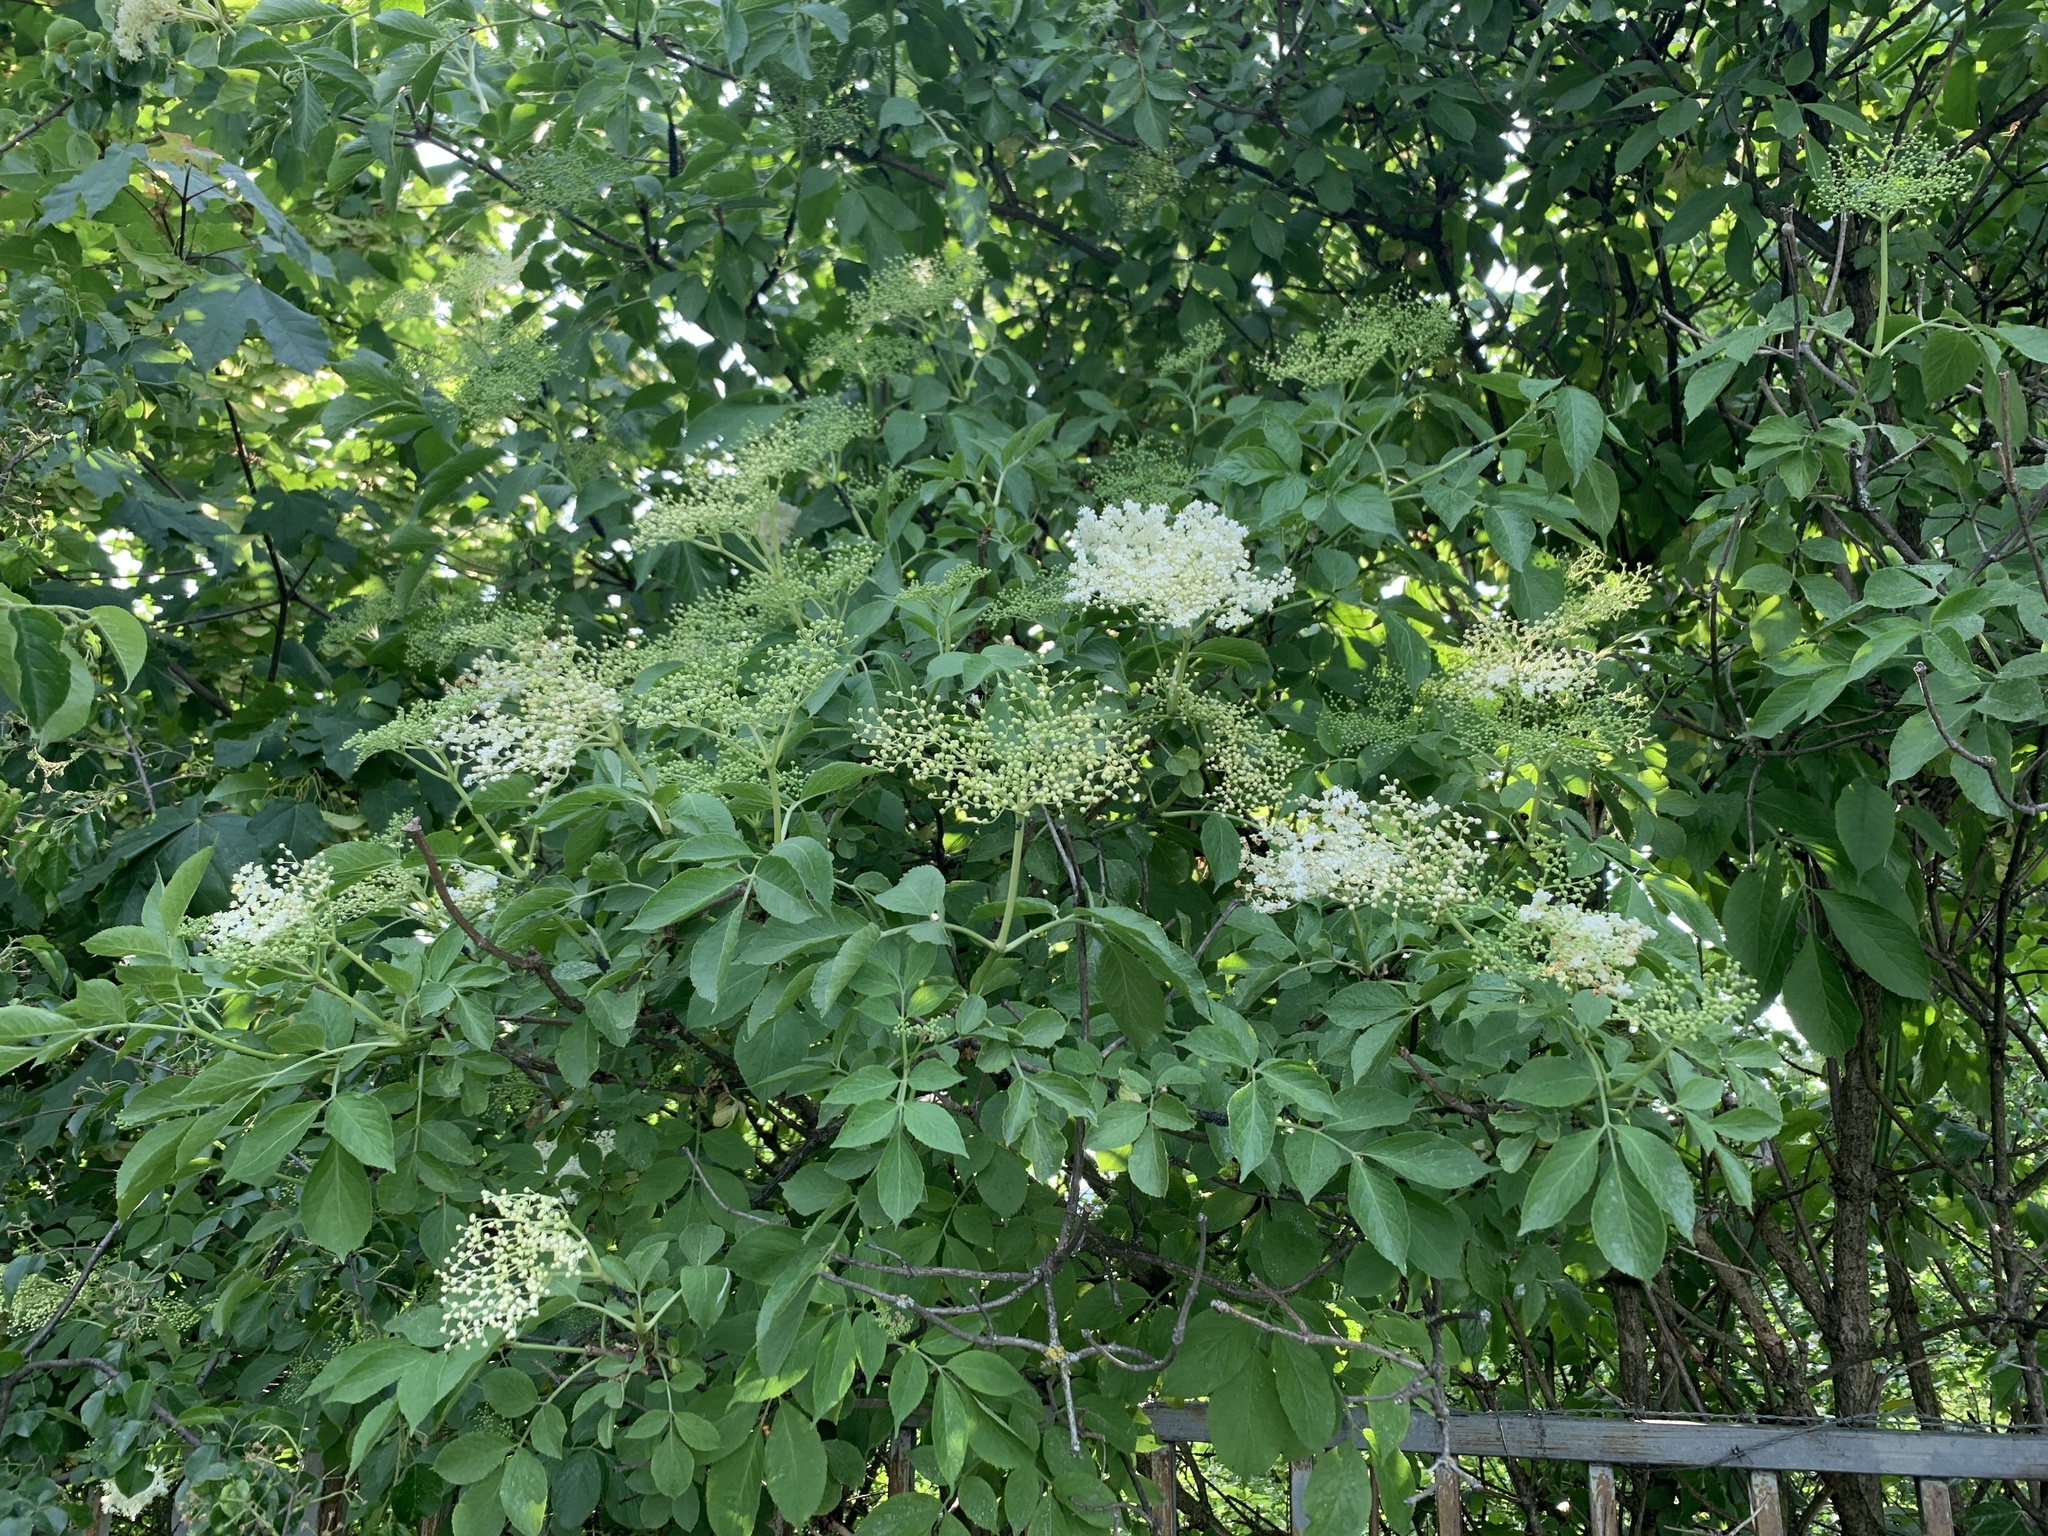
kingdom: Plantae
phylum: Tracheophyta
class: Magnoliopsida
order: Dipsacales
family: Viburnaceae
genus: Sambucus
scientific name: Sambucus nigra
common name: Elder
